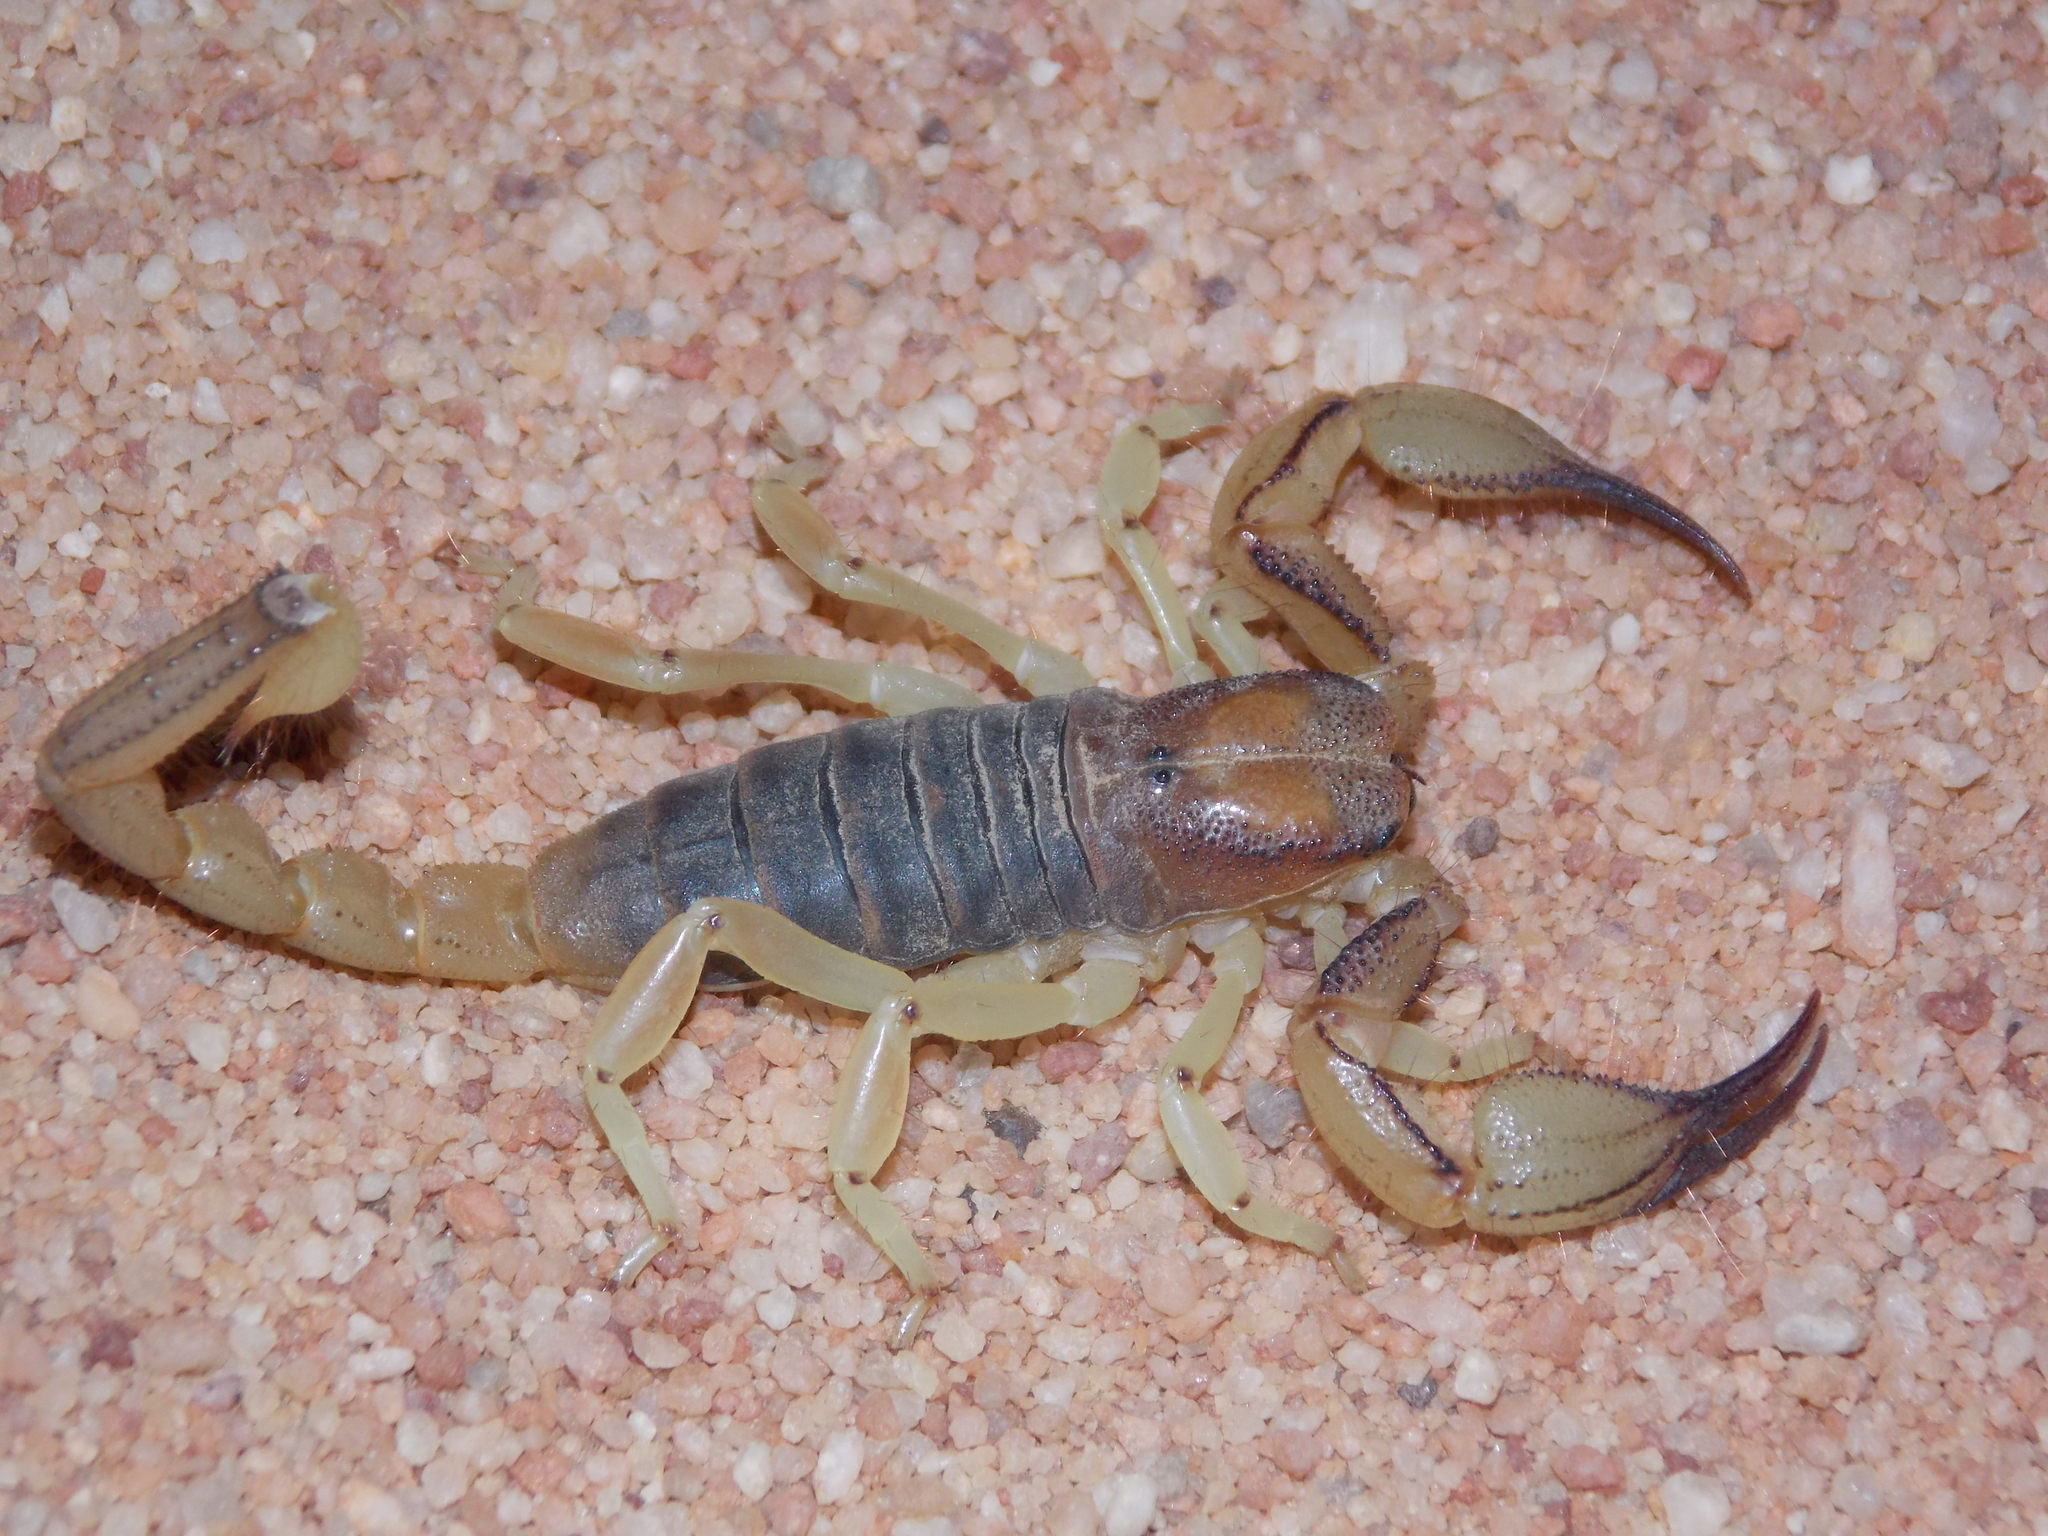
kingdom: Animalia
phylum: Arthropoda
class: Arachnida
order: Scorpiones
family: Scorpionidae
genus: Opistophthalmus
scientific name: Opistophthalmus leipoldti
